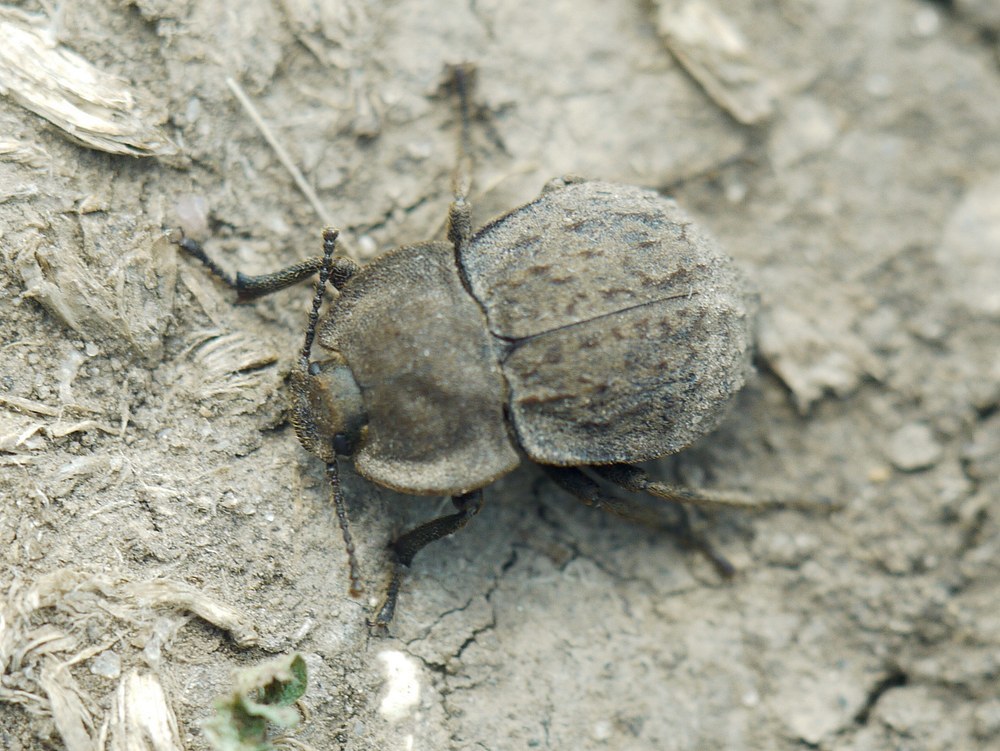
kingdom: Animalia
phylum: Arthropoda
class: Insecta
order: Coleoptera
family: Tenebrionidae
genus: Asida
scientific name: Asida lutosa
